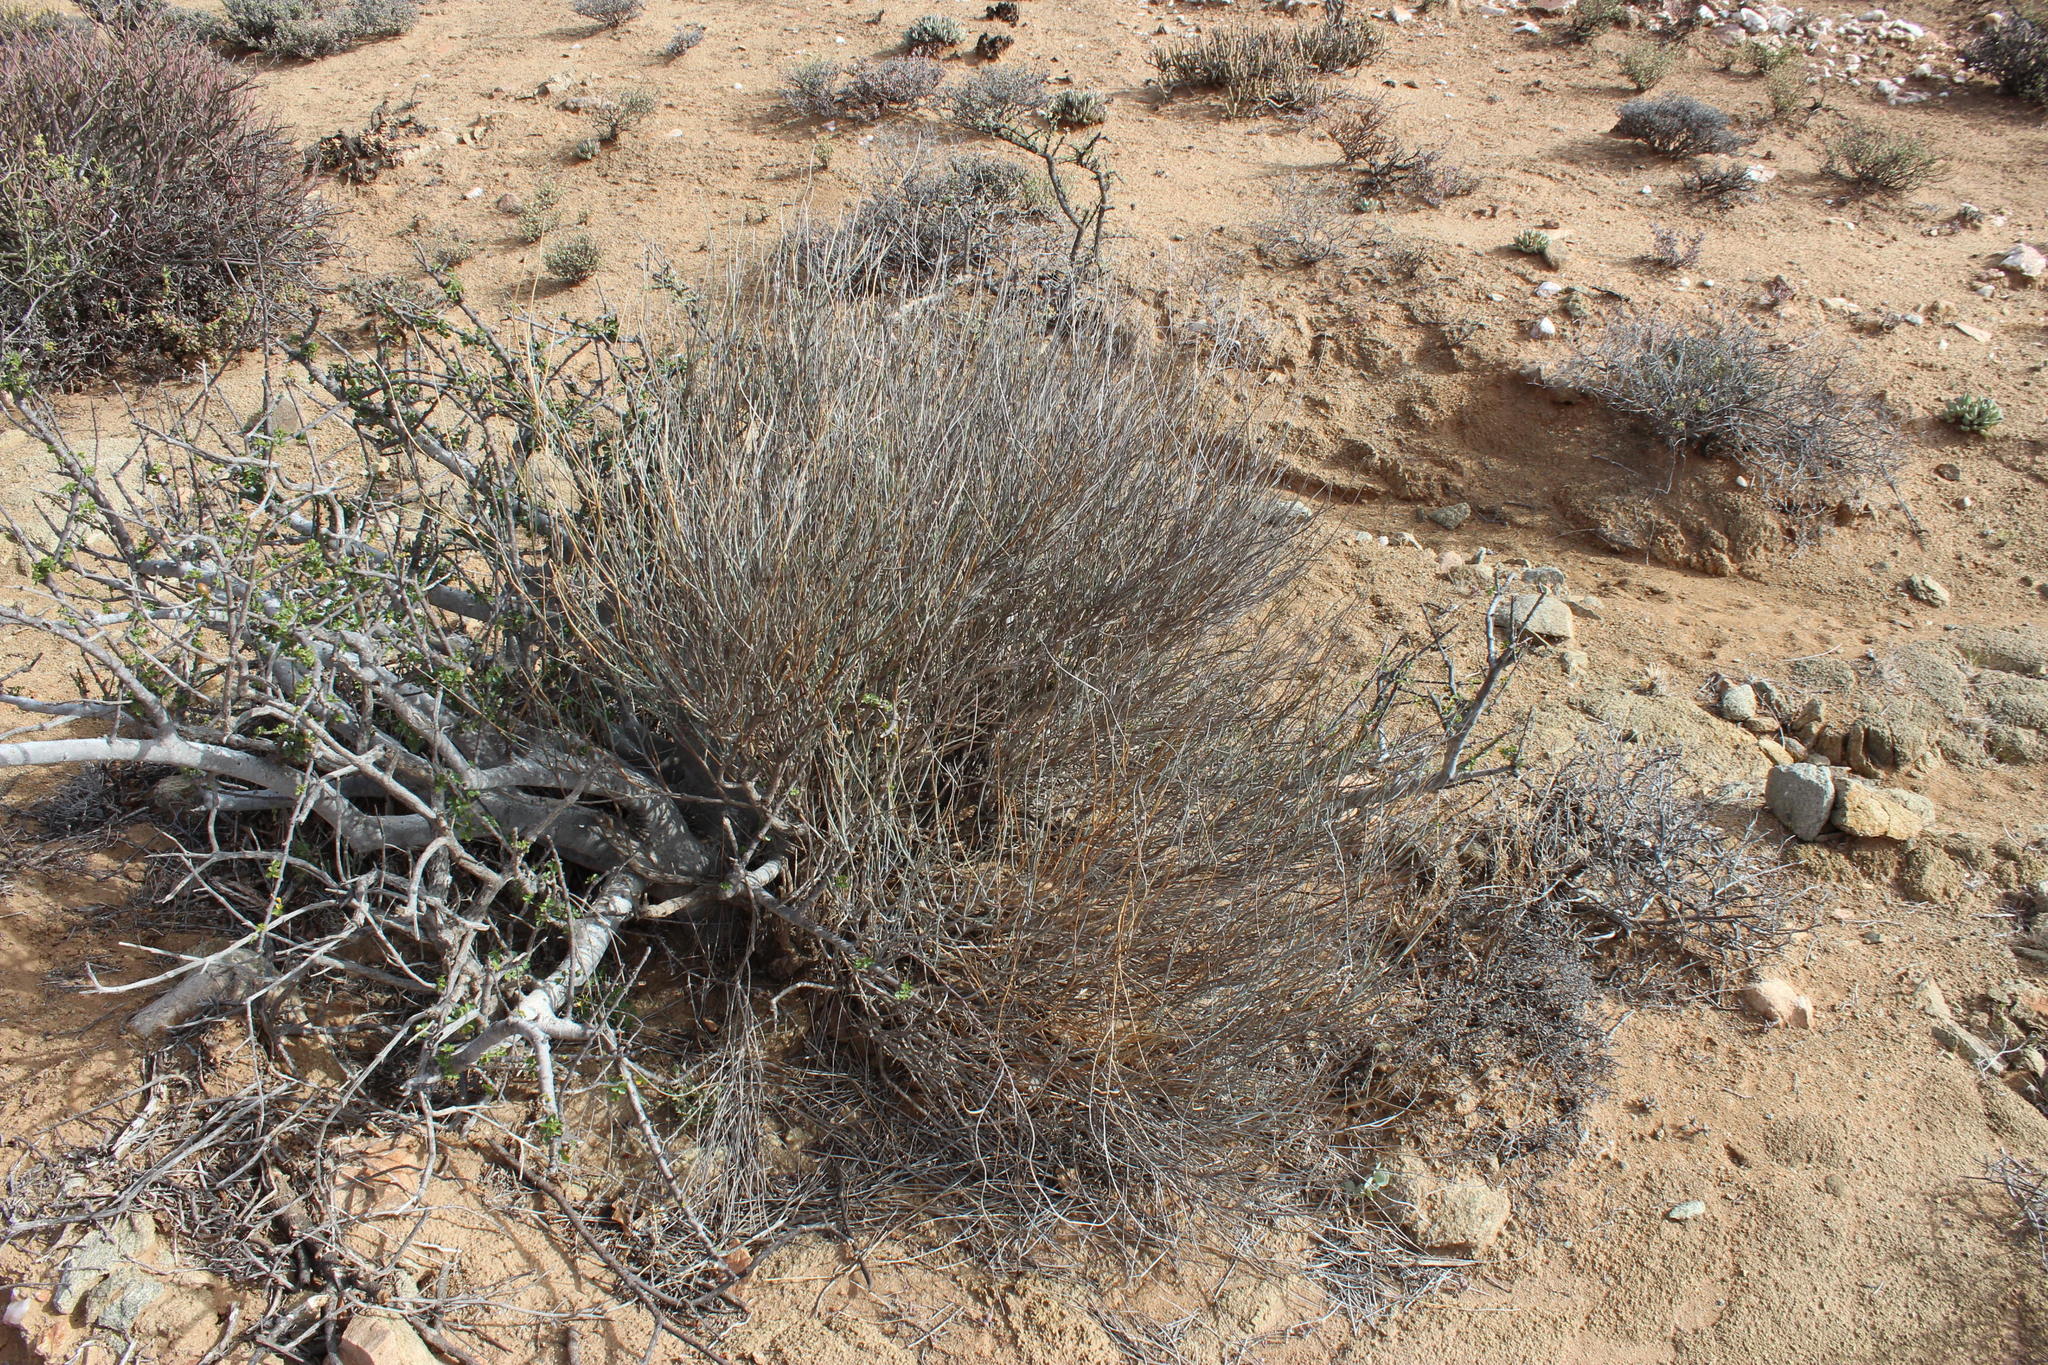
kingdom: Plantae
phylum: Tracheophyta
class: Magnoliopsida
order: Caryophyllales
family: Amaranthaceae
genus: Hermbstaedtia
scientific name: Hermbstaedtia glauca
